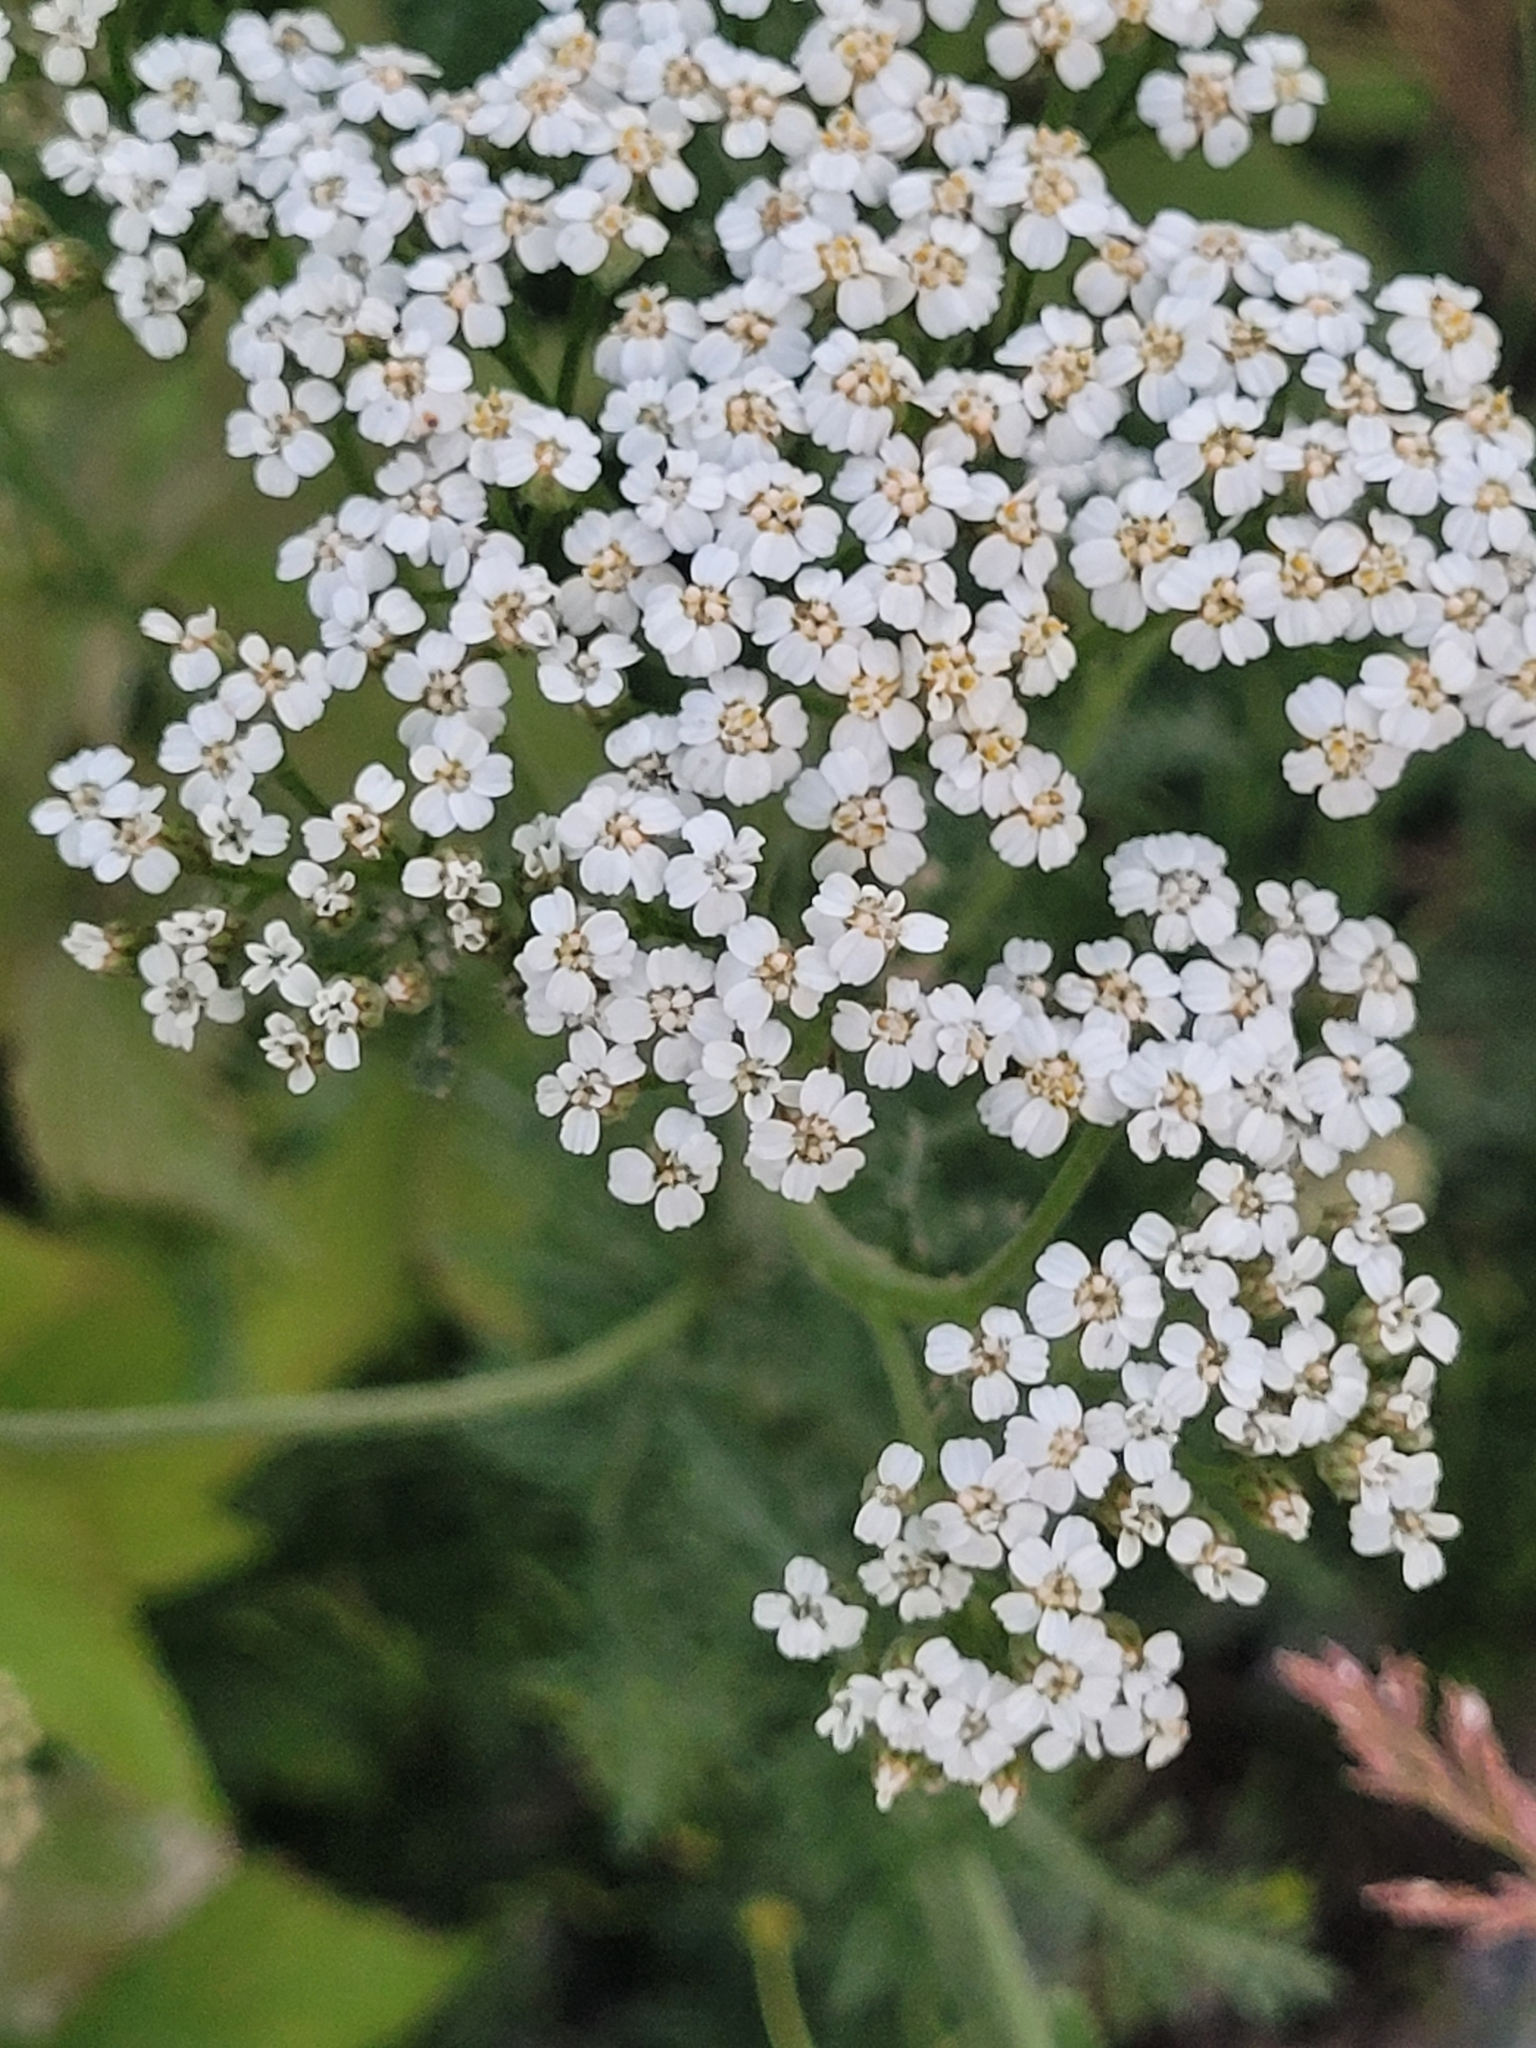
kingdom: Plantae
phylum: Tracheophyta
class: Magnoliopsida
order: Asterales
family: Asteraceae
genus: Achillea
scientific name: Achillea millefolium
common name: Yarrow
